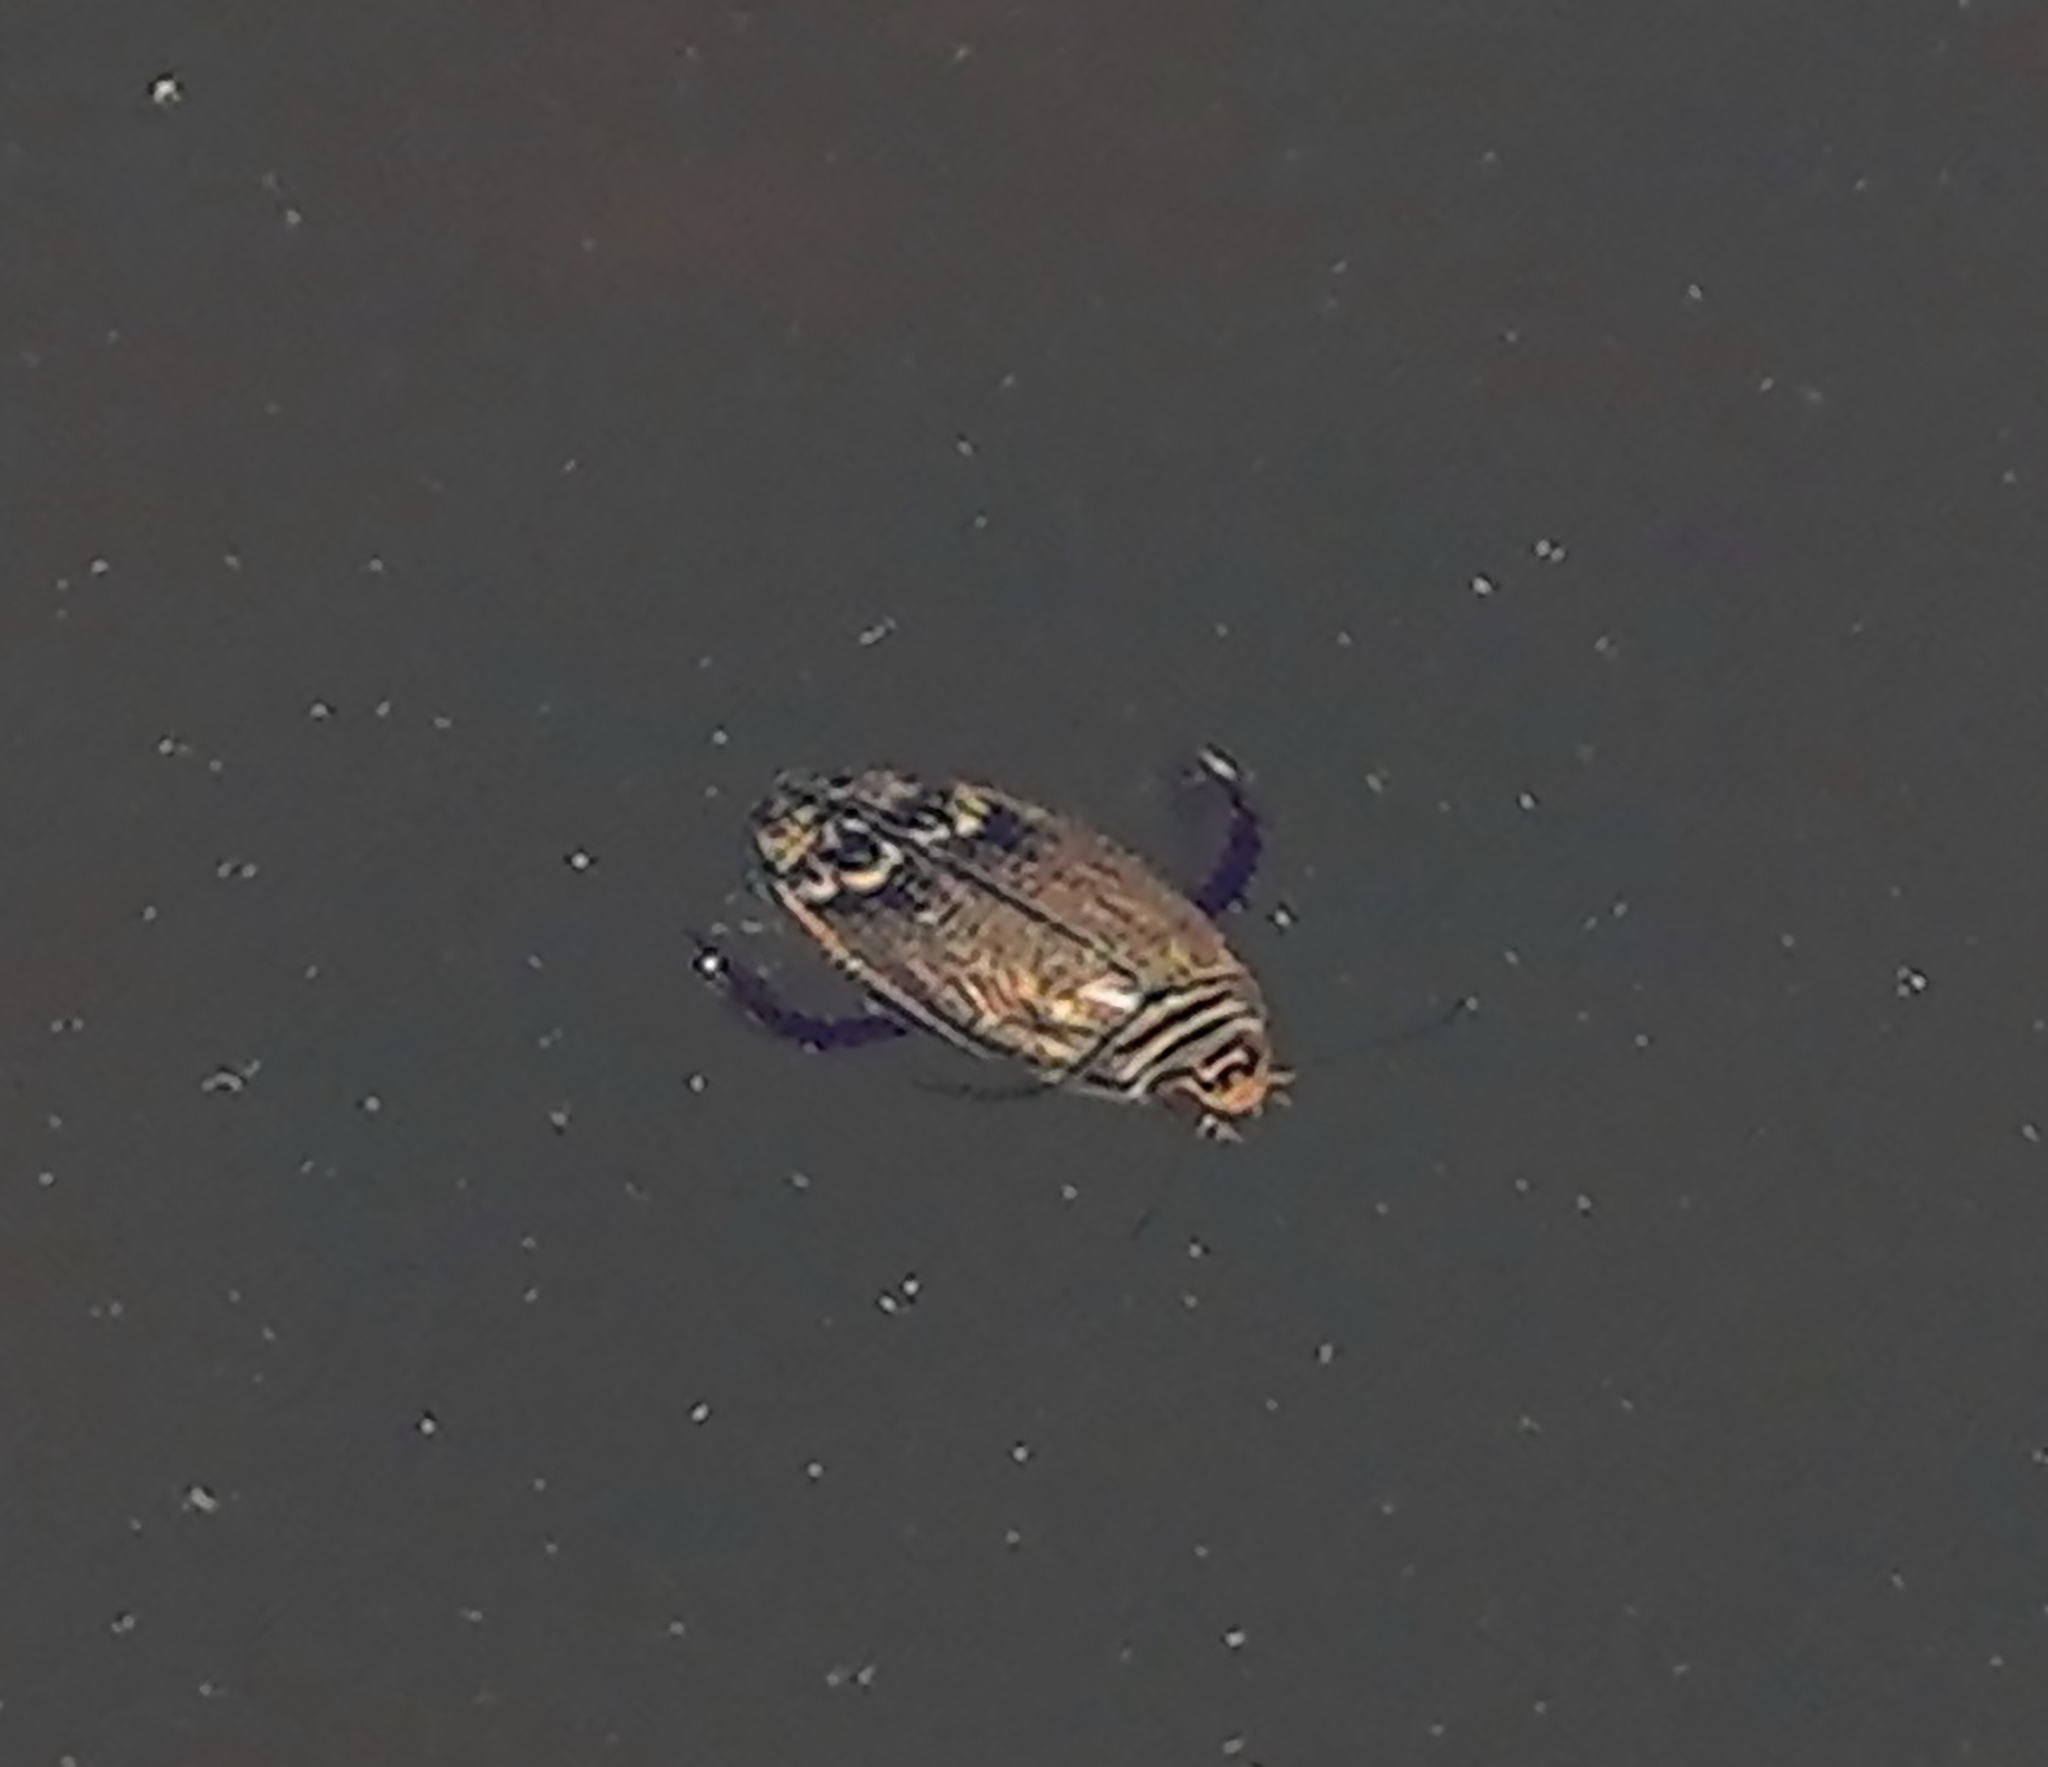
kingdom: Animalia
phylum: Arthropoda
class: Insecta
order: Coleoptera
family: Dytiscidae
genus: Acilius
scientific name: Acilius abbreviatus
